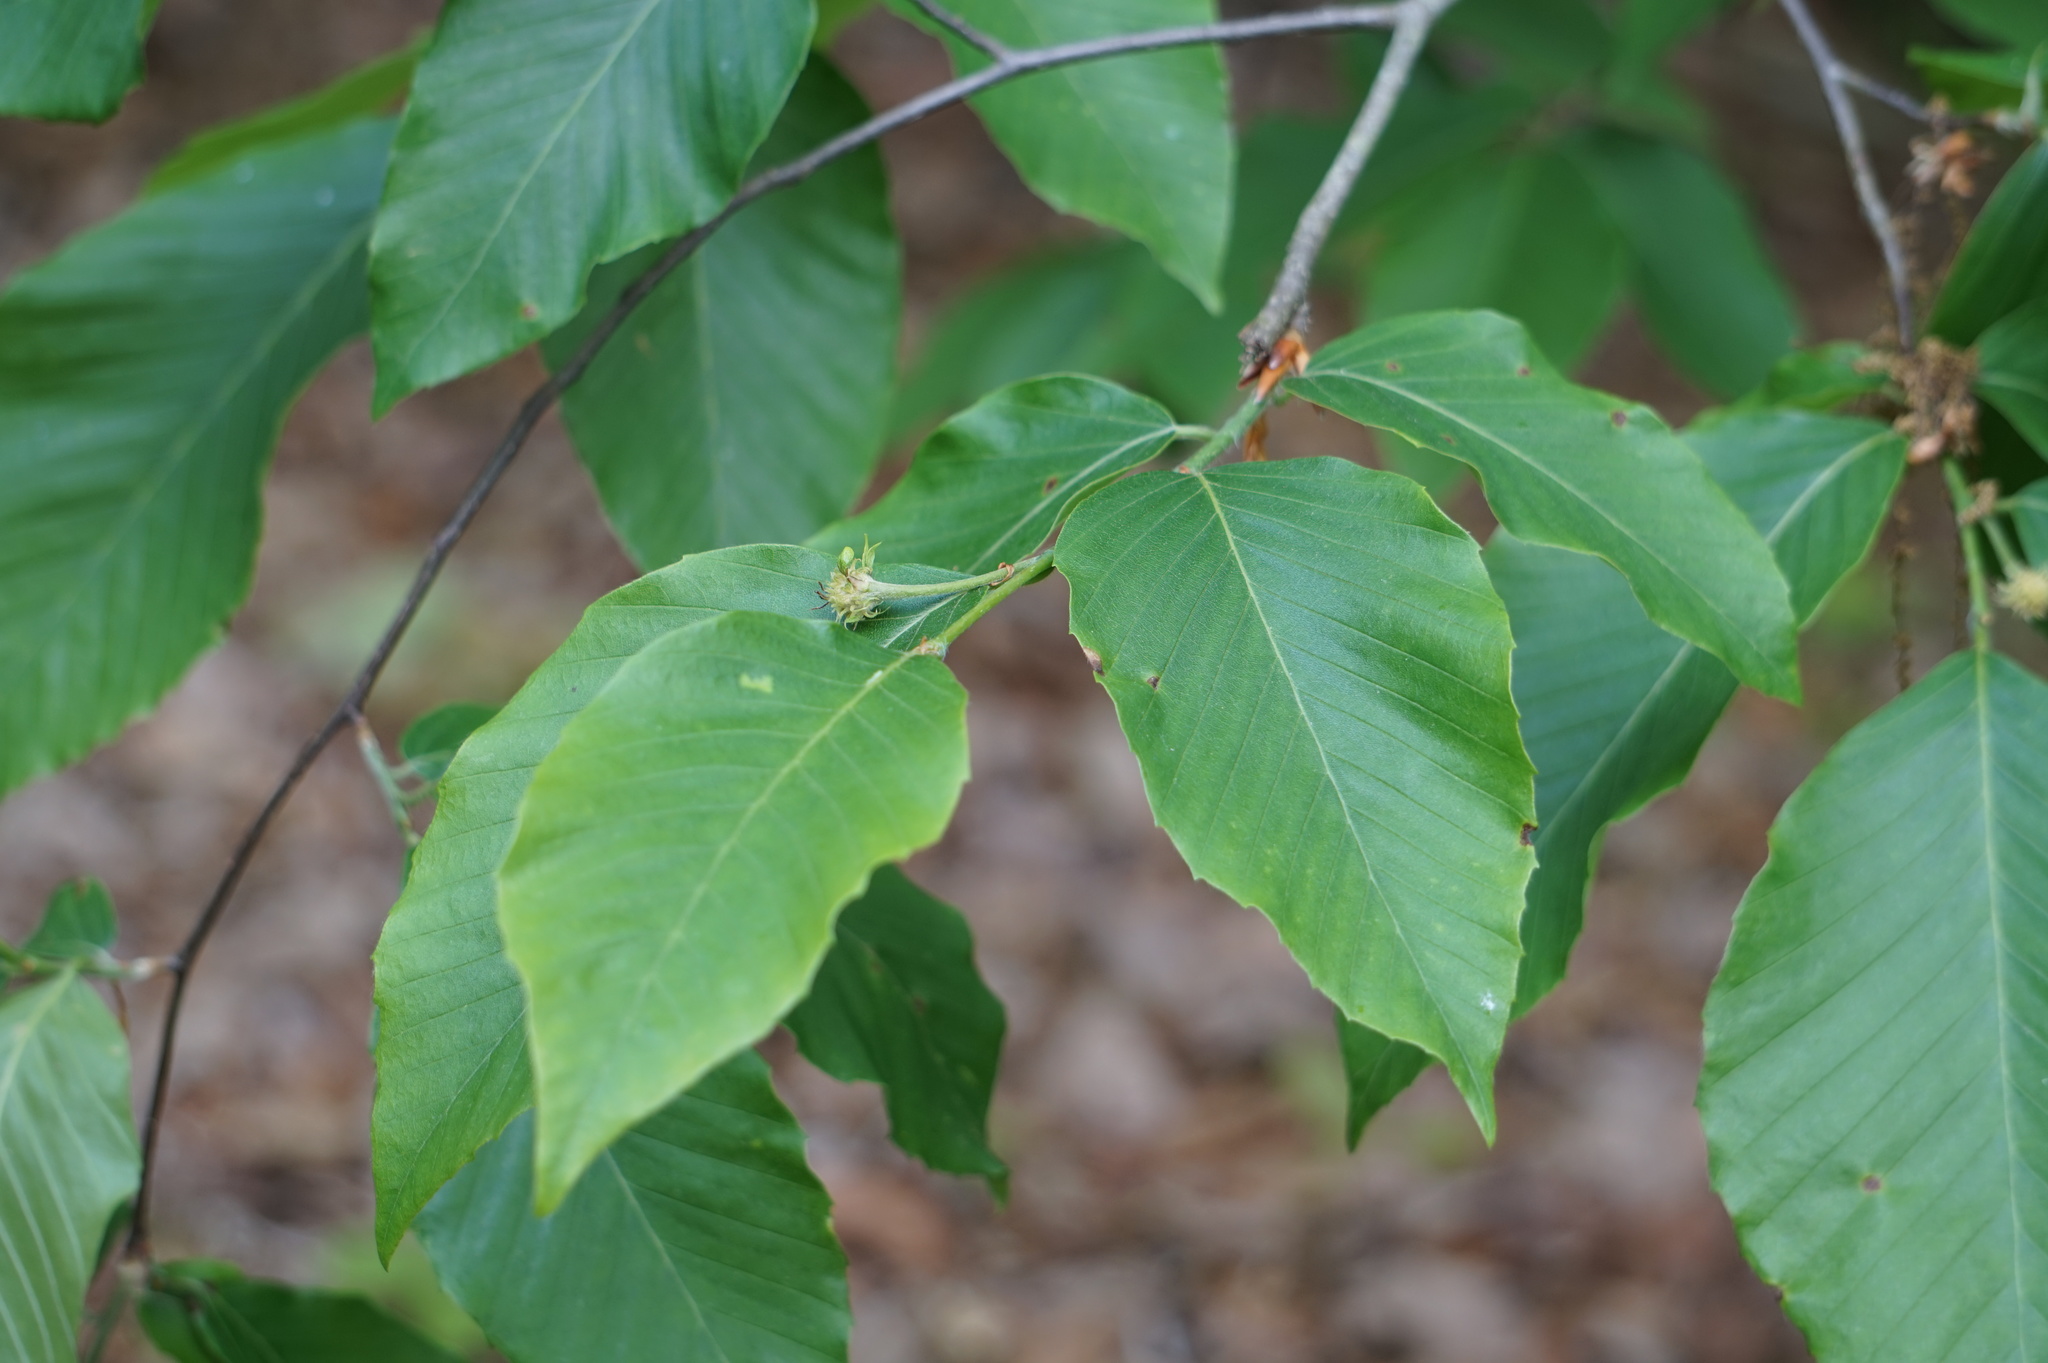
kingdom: Plantae
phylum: Tracheophyta
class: Magnoliopsida
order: Fagales
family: Fagaceae
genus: Fagus
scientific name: Fagus grandifolia
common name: American beech
